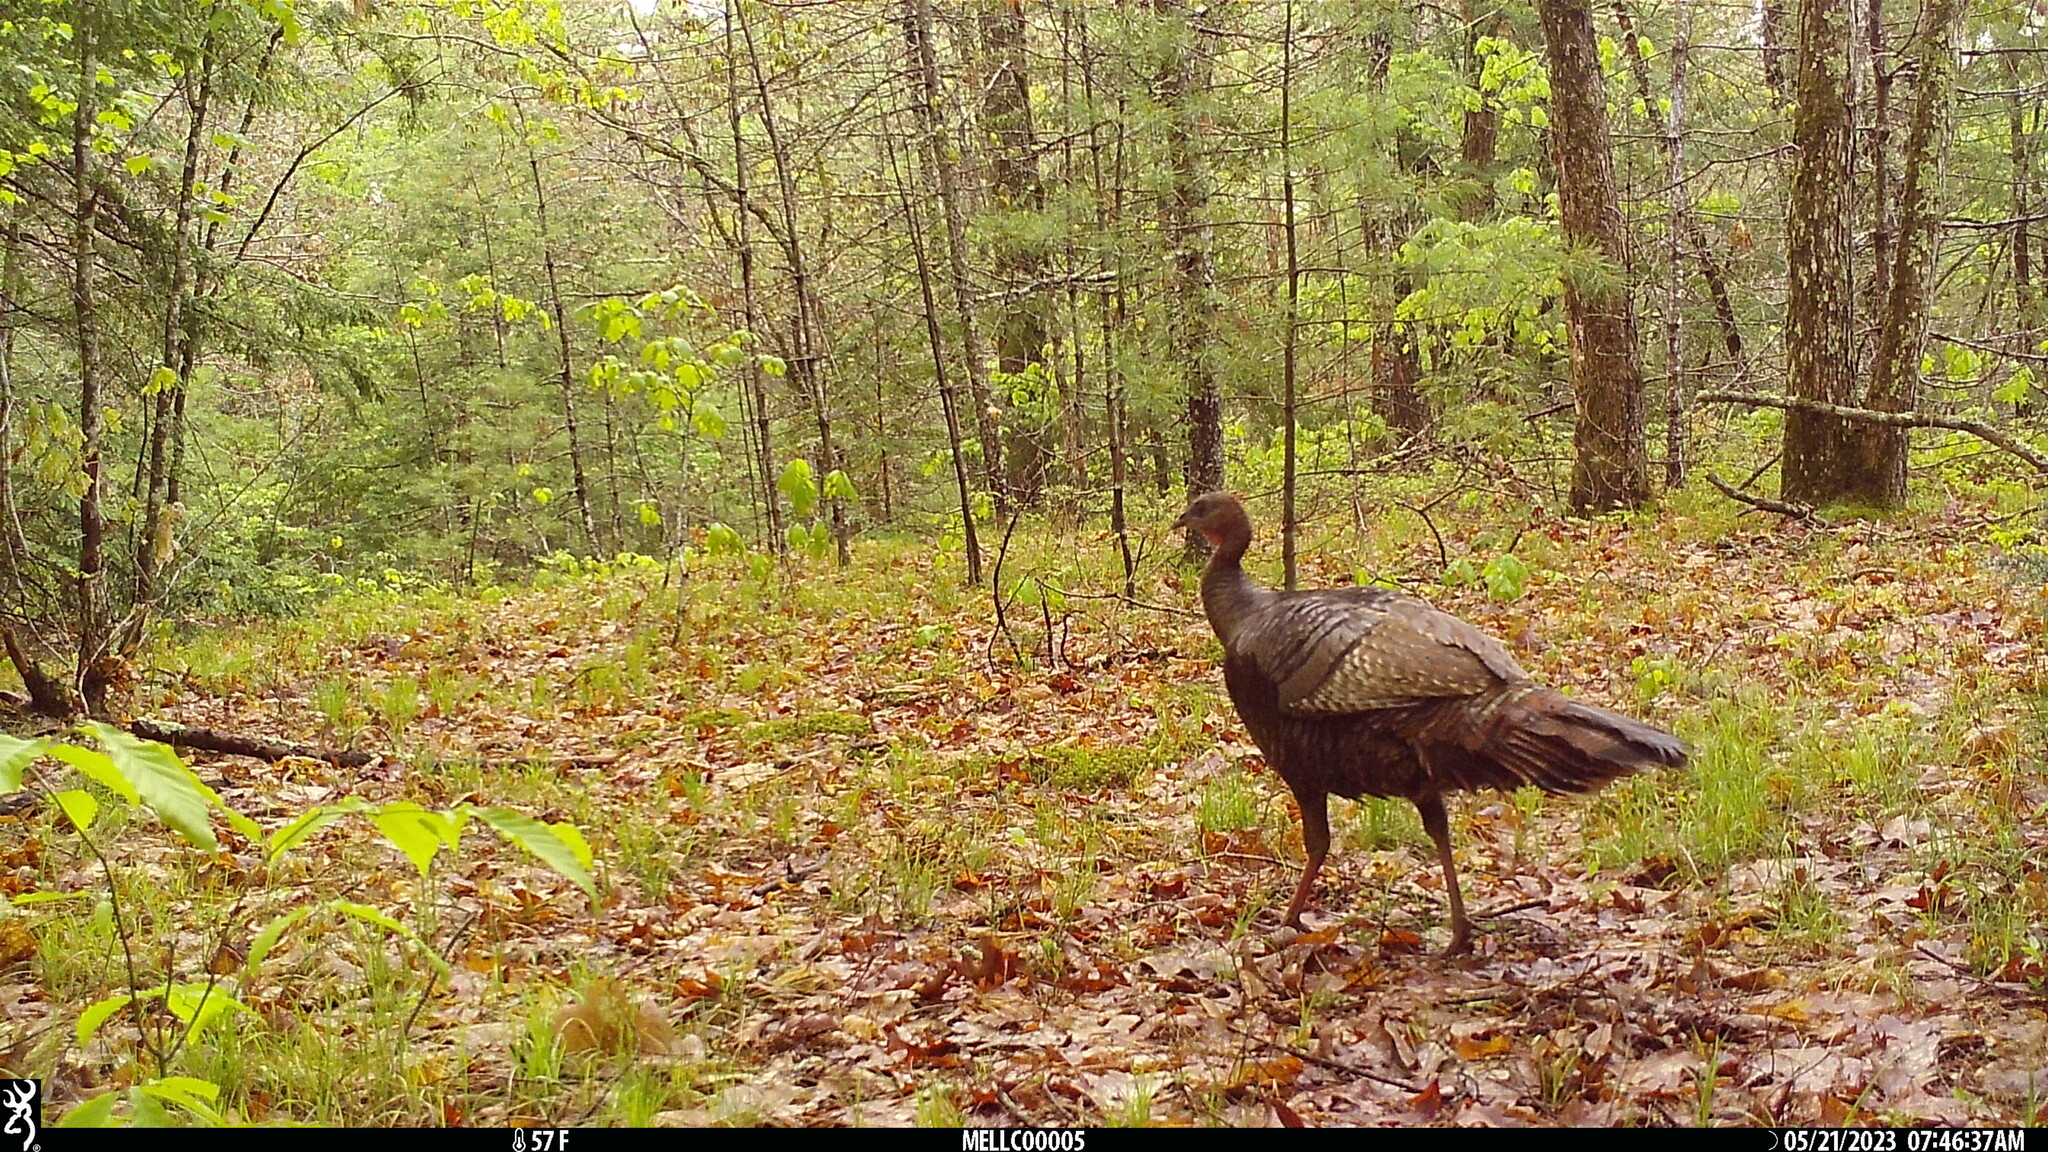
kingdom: Animalia
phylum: Chordata
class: Aves
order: Galliformes
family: Phasianidae
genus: Meleagris
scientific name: Meleagris gallopavo
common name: Wild turkey
